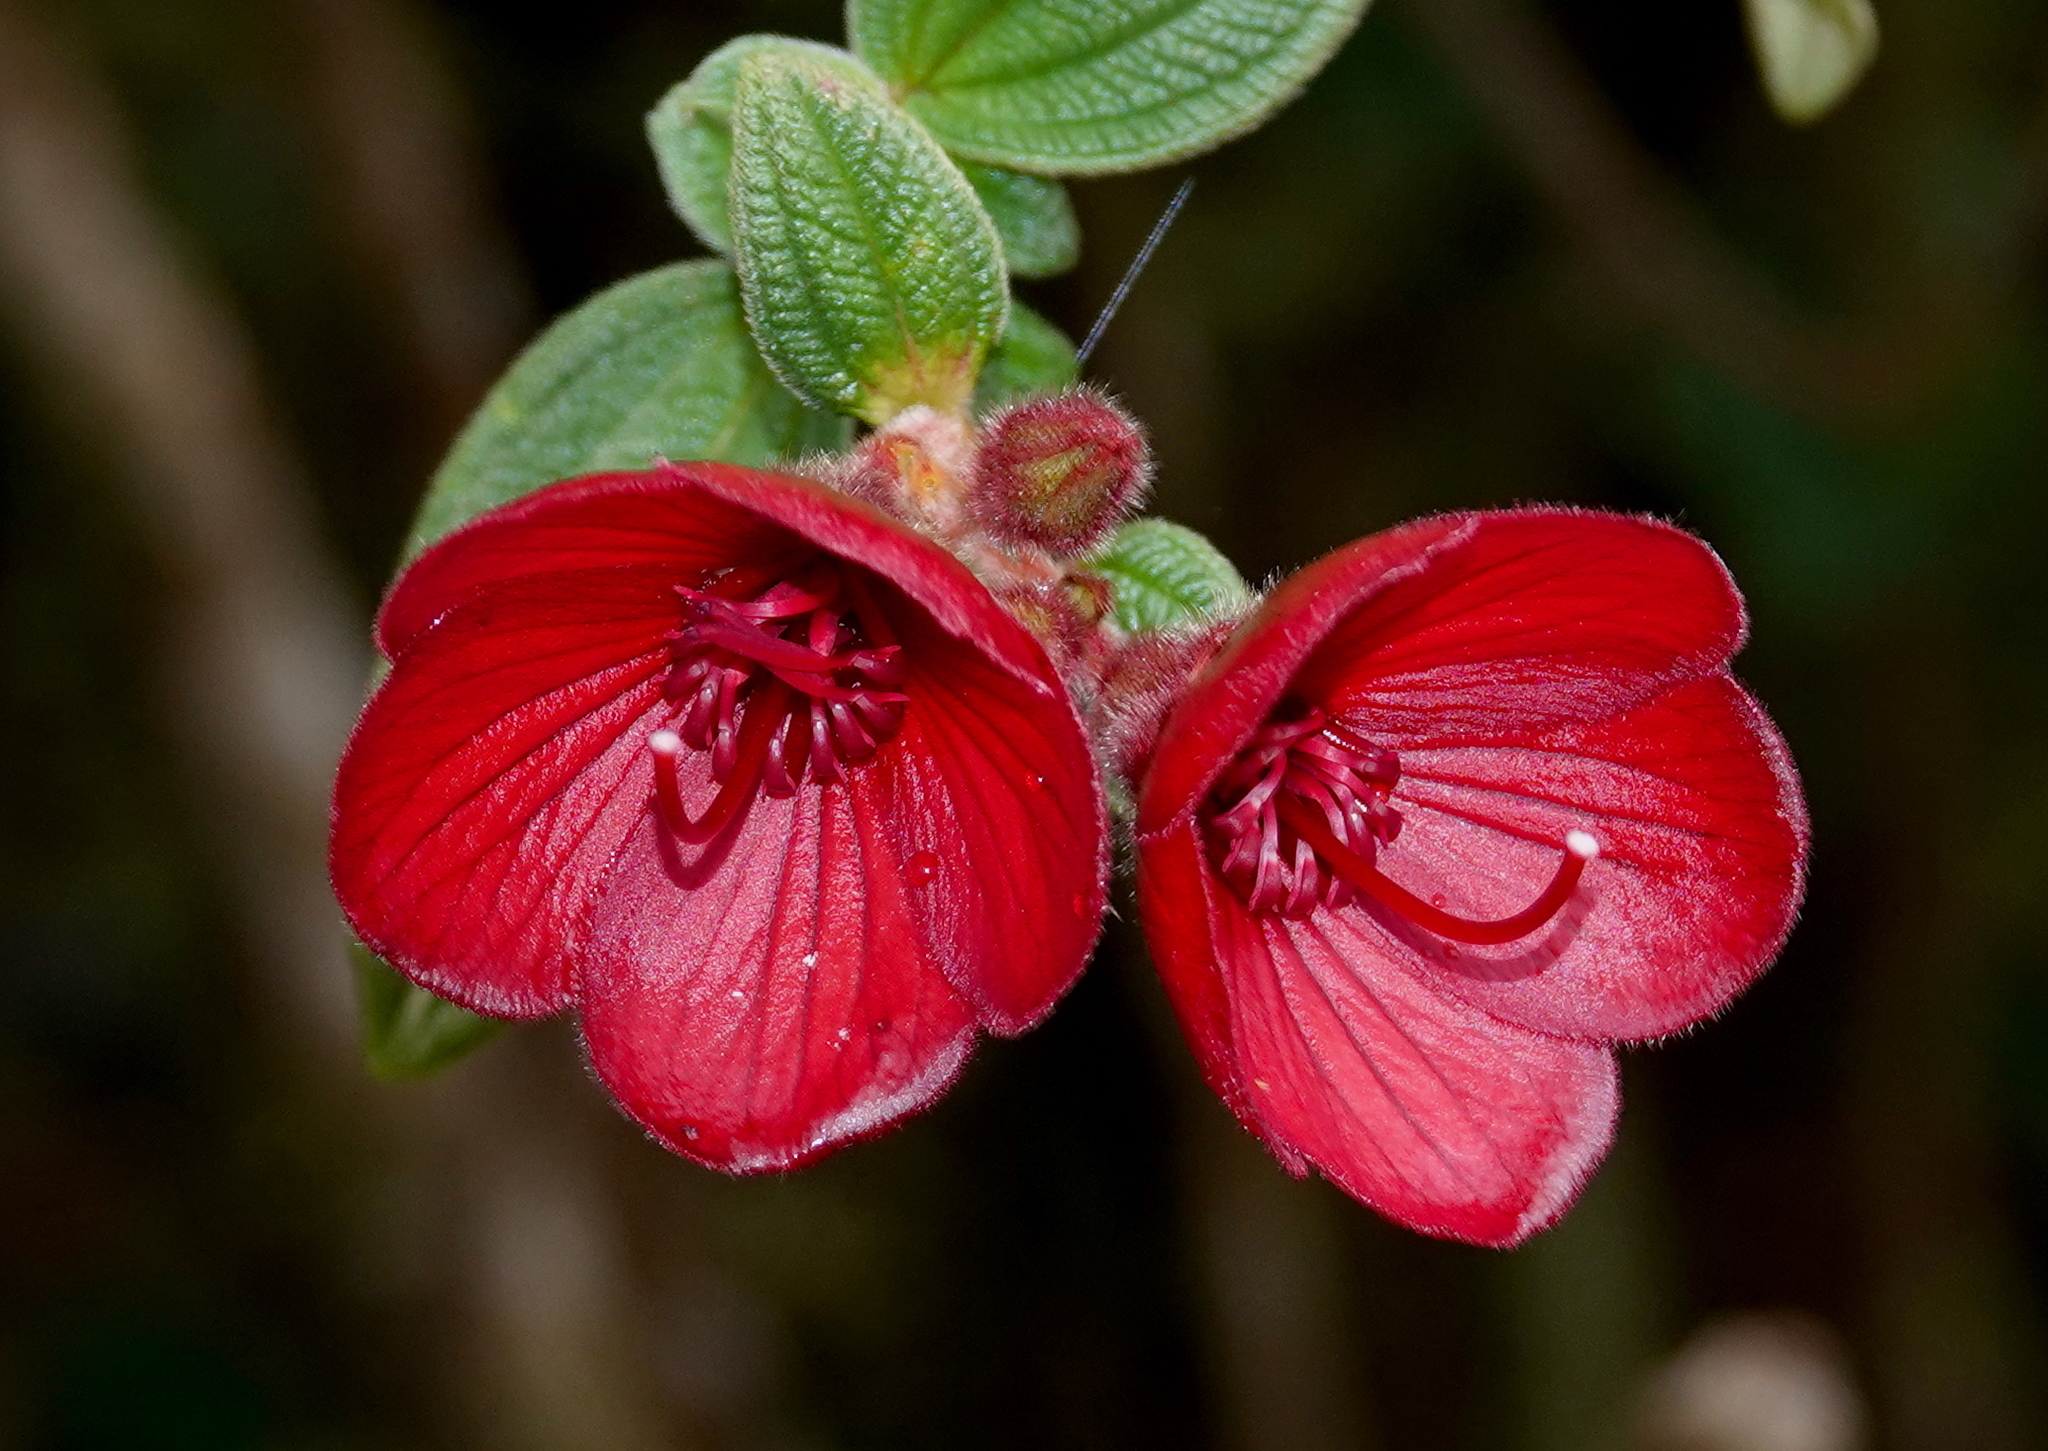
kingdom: Plantae
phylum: Tracheophyta
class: Magnoliopsida
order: Myrtales
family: Melastomataceae
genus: Chaetogastra
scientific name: Chaetogastra grossa
